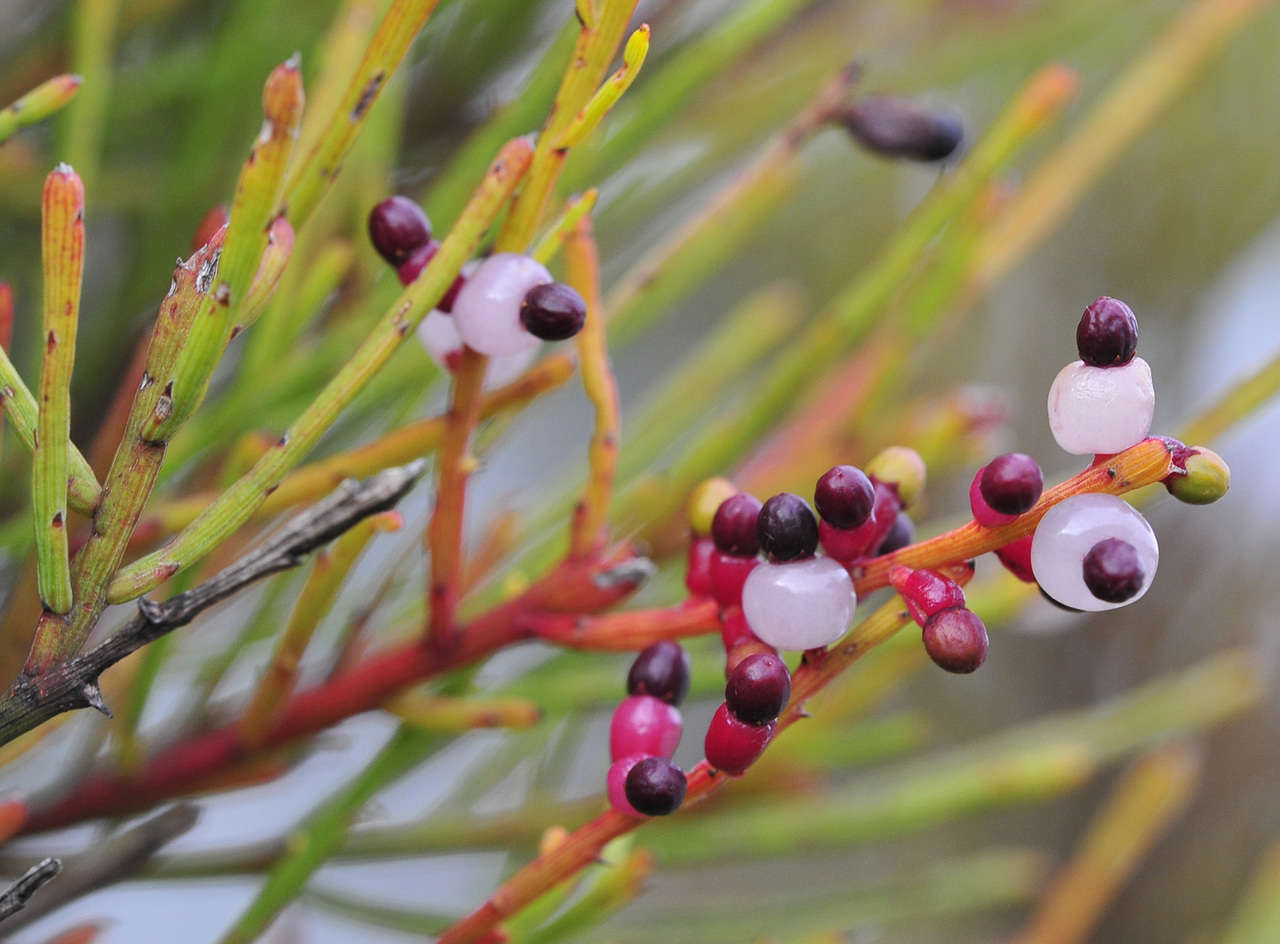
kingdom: Plantae
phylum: Tracheophyta
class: Magnoliopsida
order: Santalales
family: Santalaceae
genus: Exocarpos
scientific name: Exocarpos syrticola
